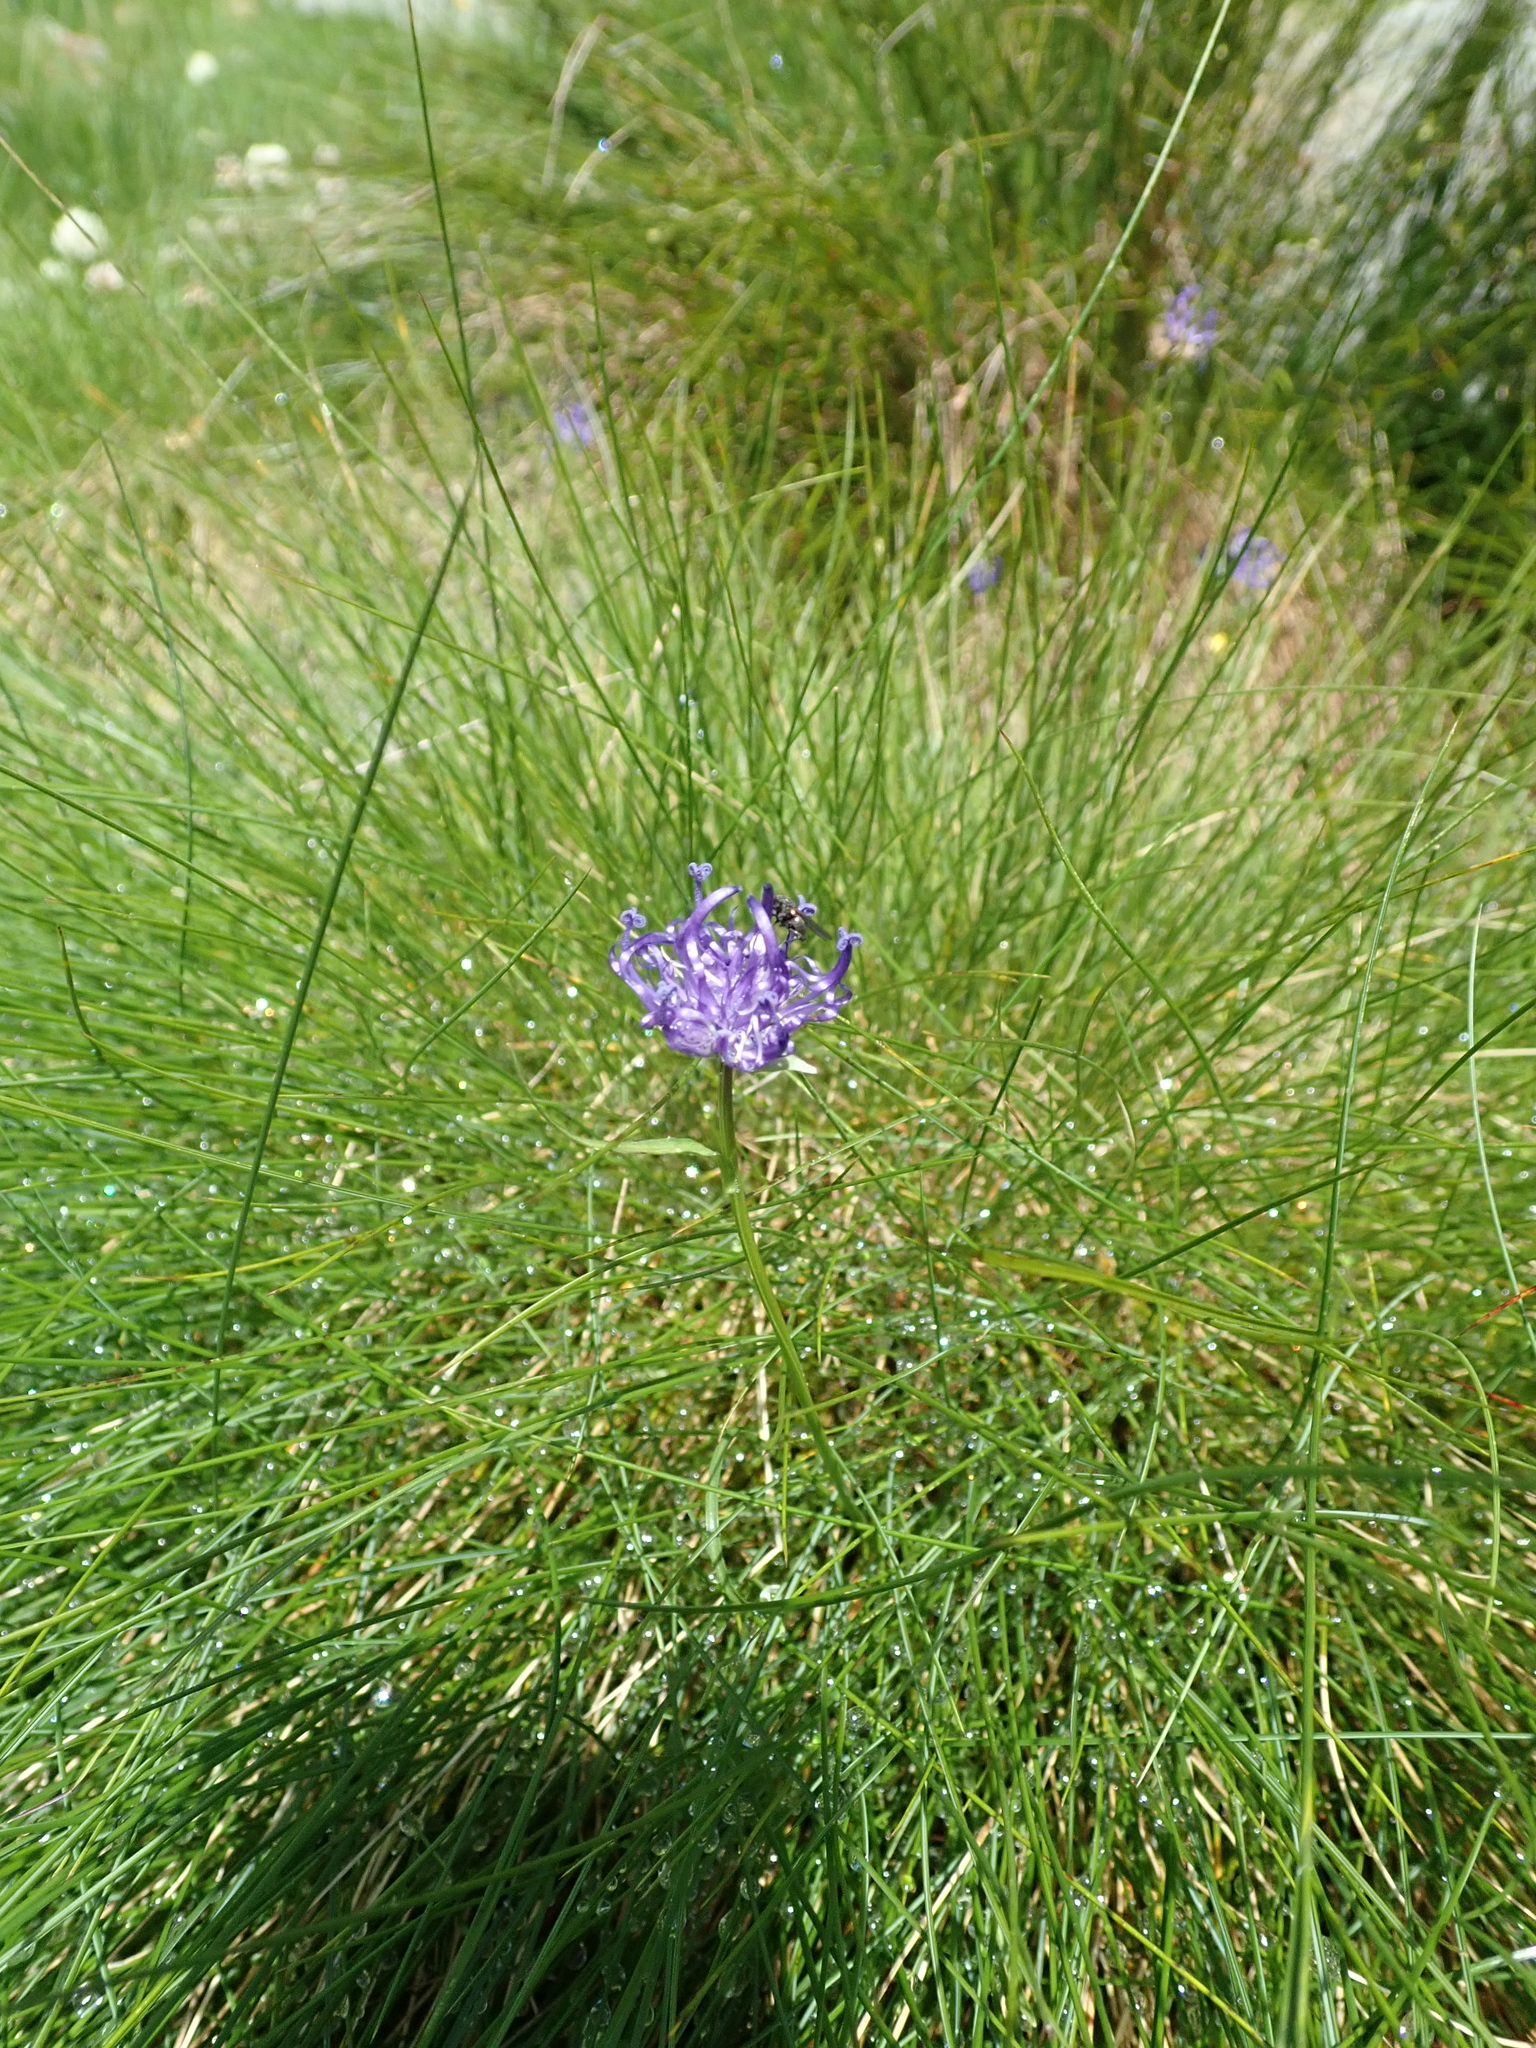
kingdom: Plantae
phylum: Tracheophyta
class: Magnoliopsida
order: Asterales
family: Campanulaceae
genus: Phyteuma
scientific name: Phyteuma hemisphaericum
